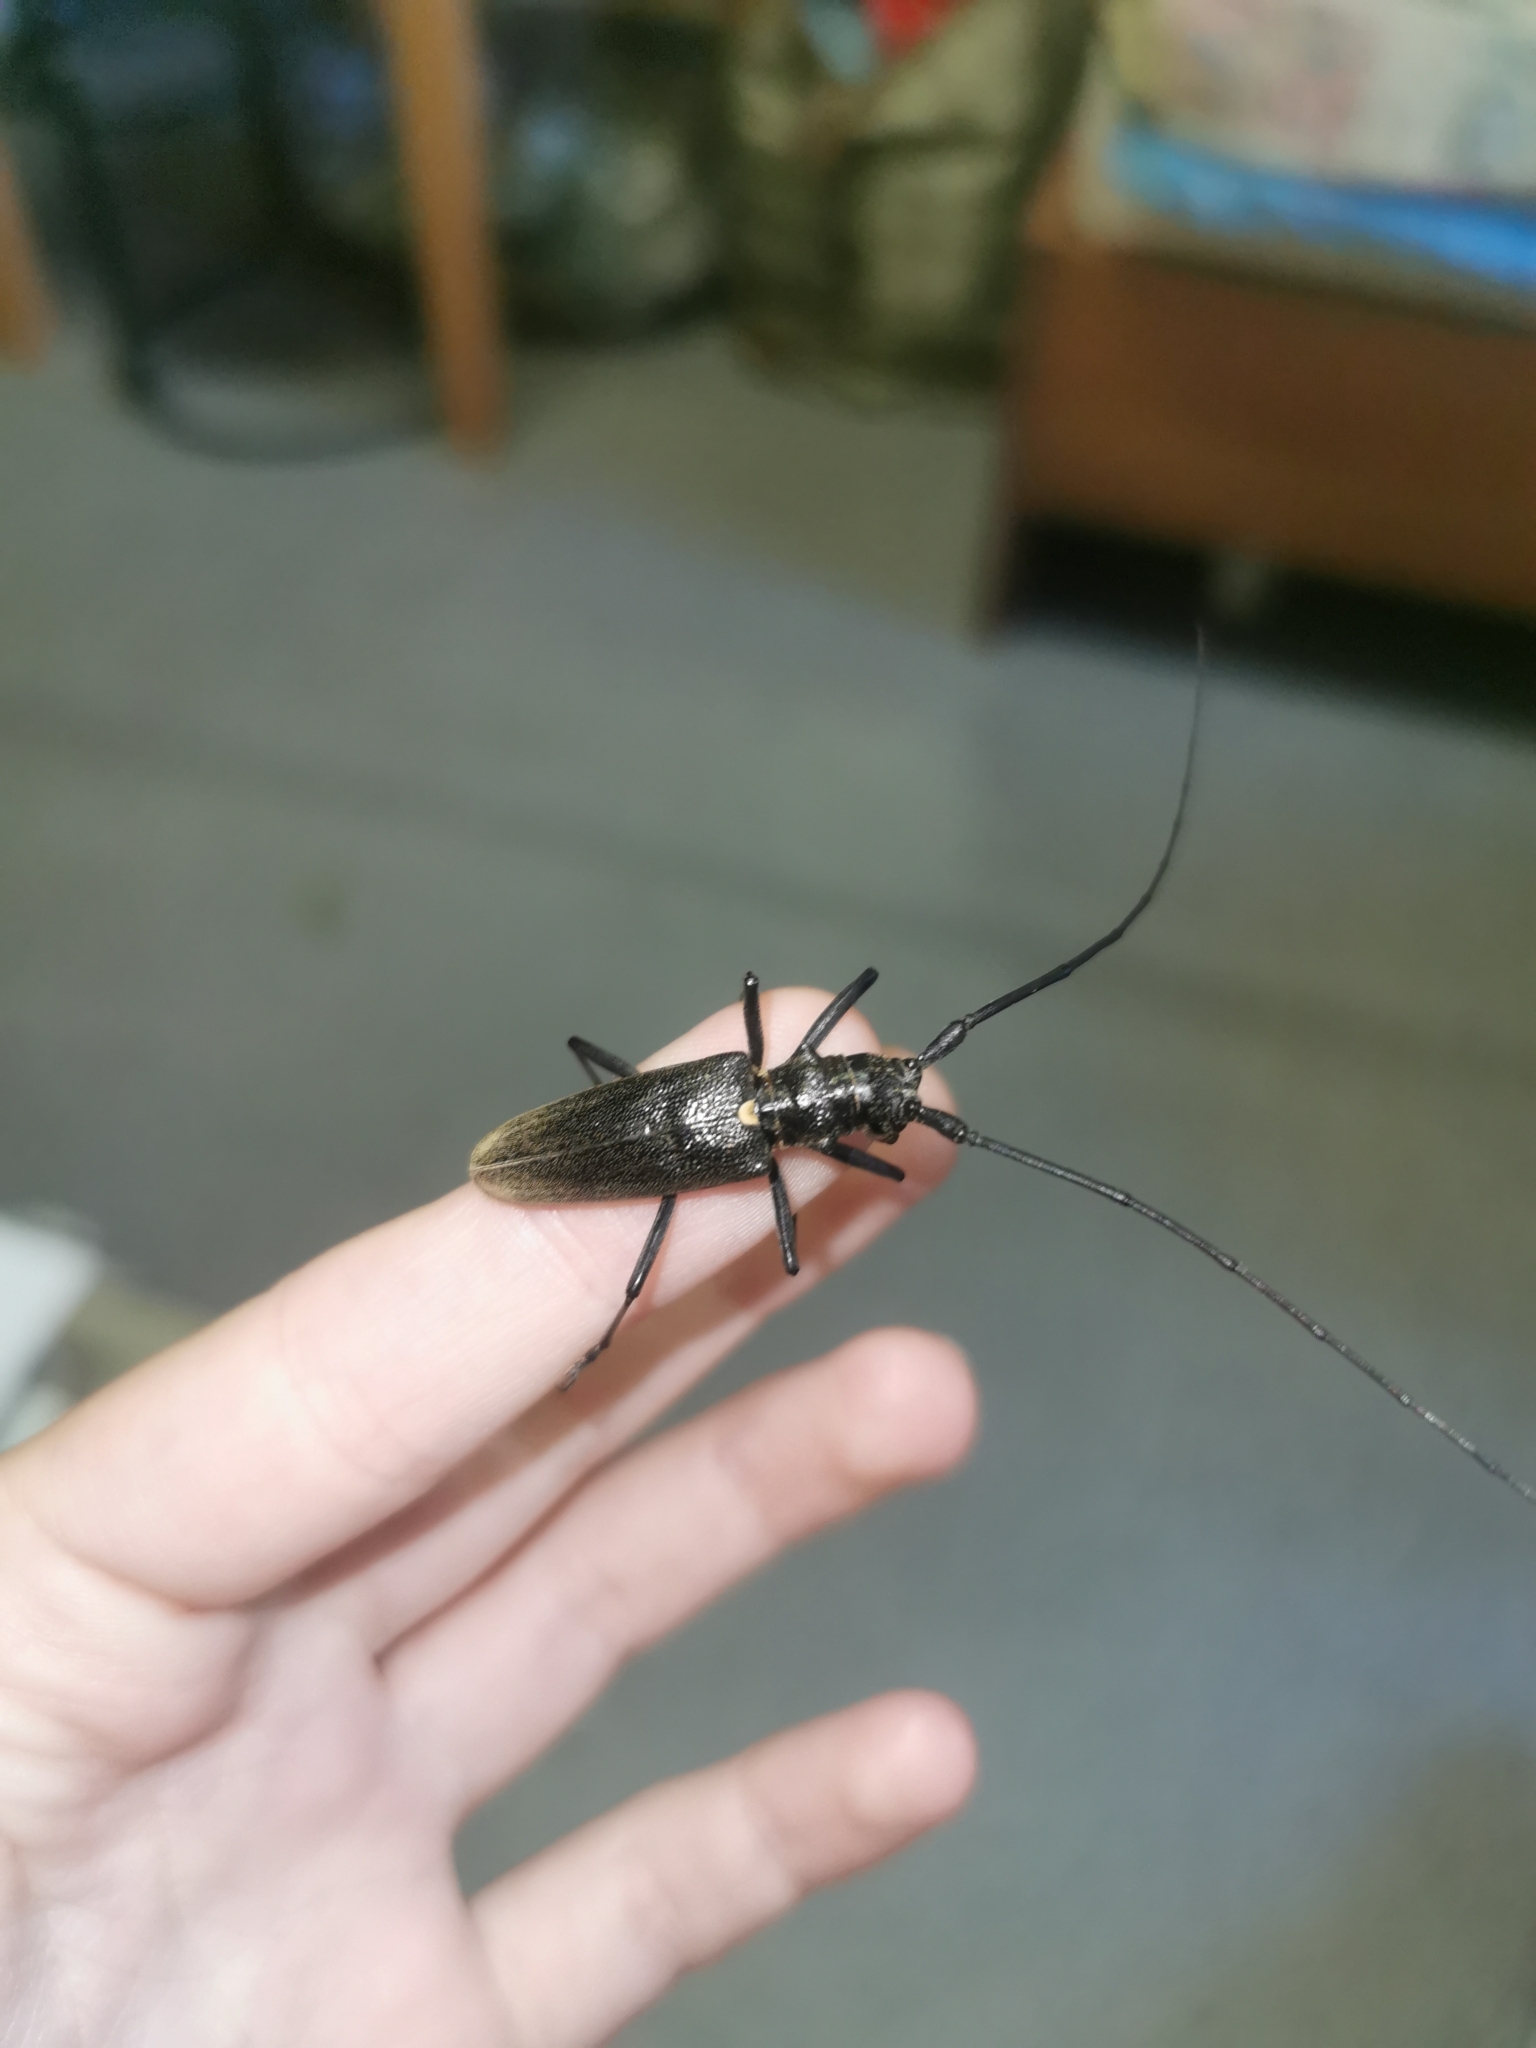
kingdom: Animalia
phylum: Arthropoda
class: Insecta
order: Coleoptera
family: Cerambycidae
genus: Monochamus
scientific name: Monochamus sartor
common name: Pine sawyer
